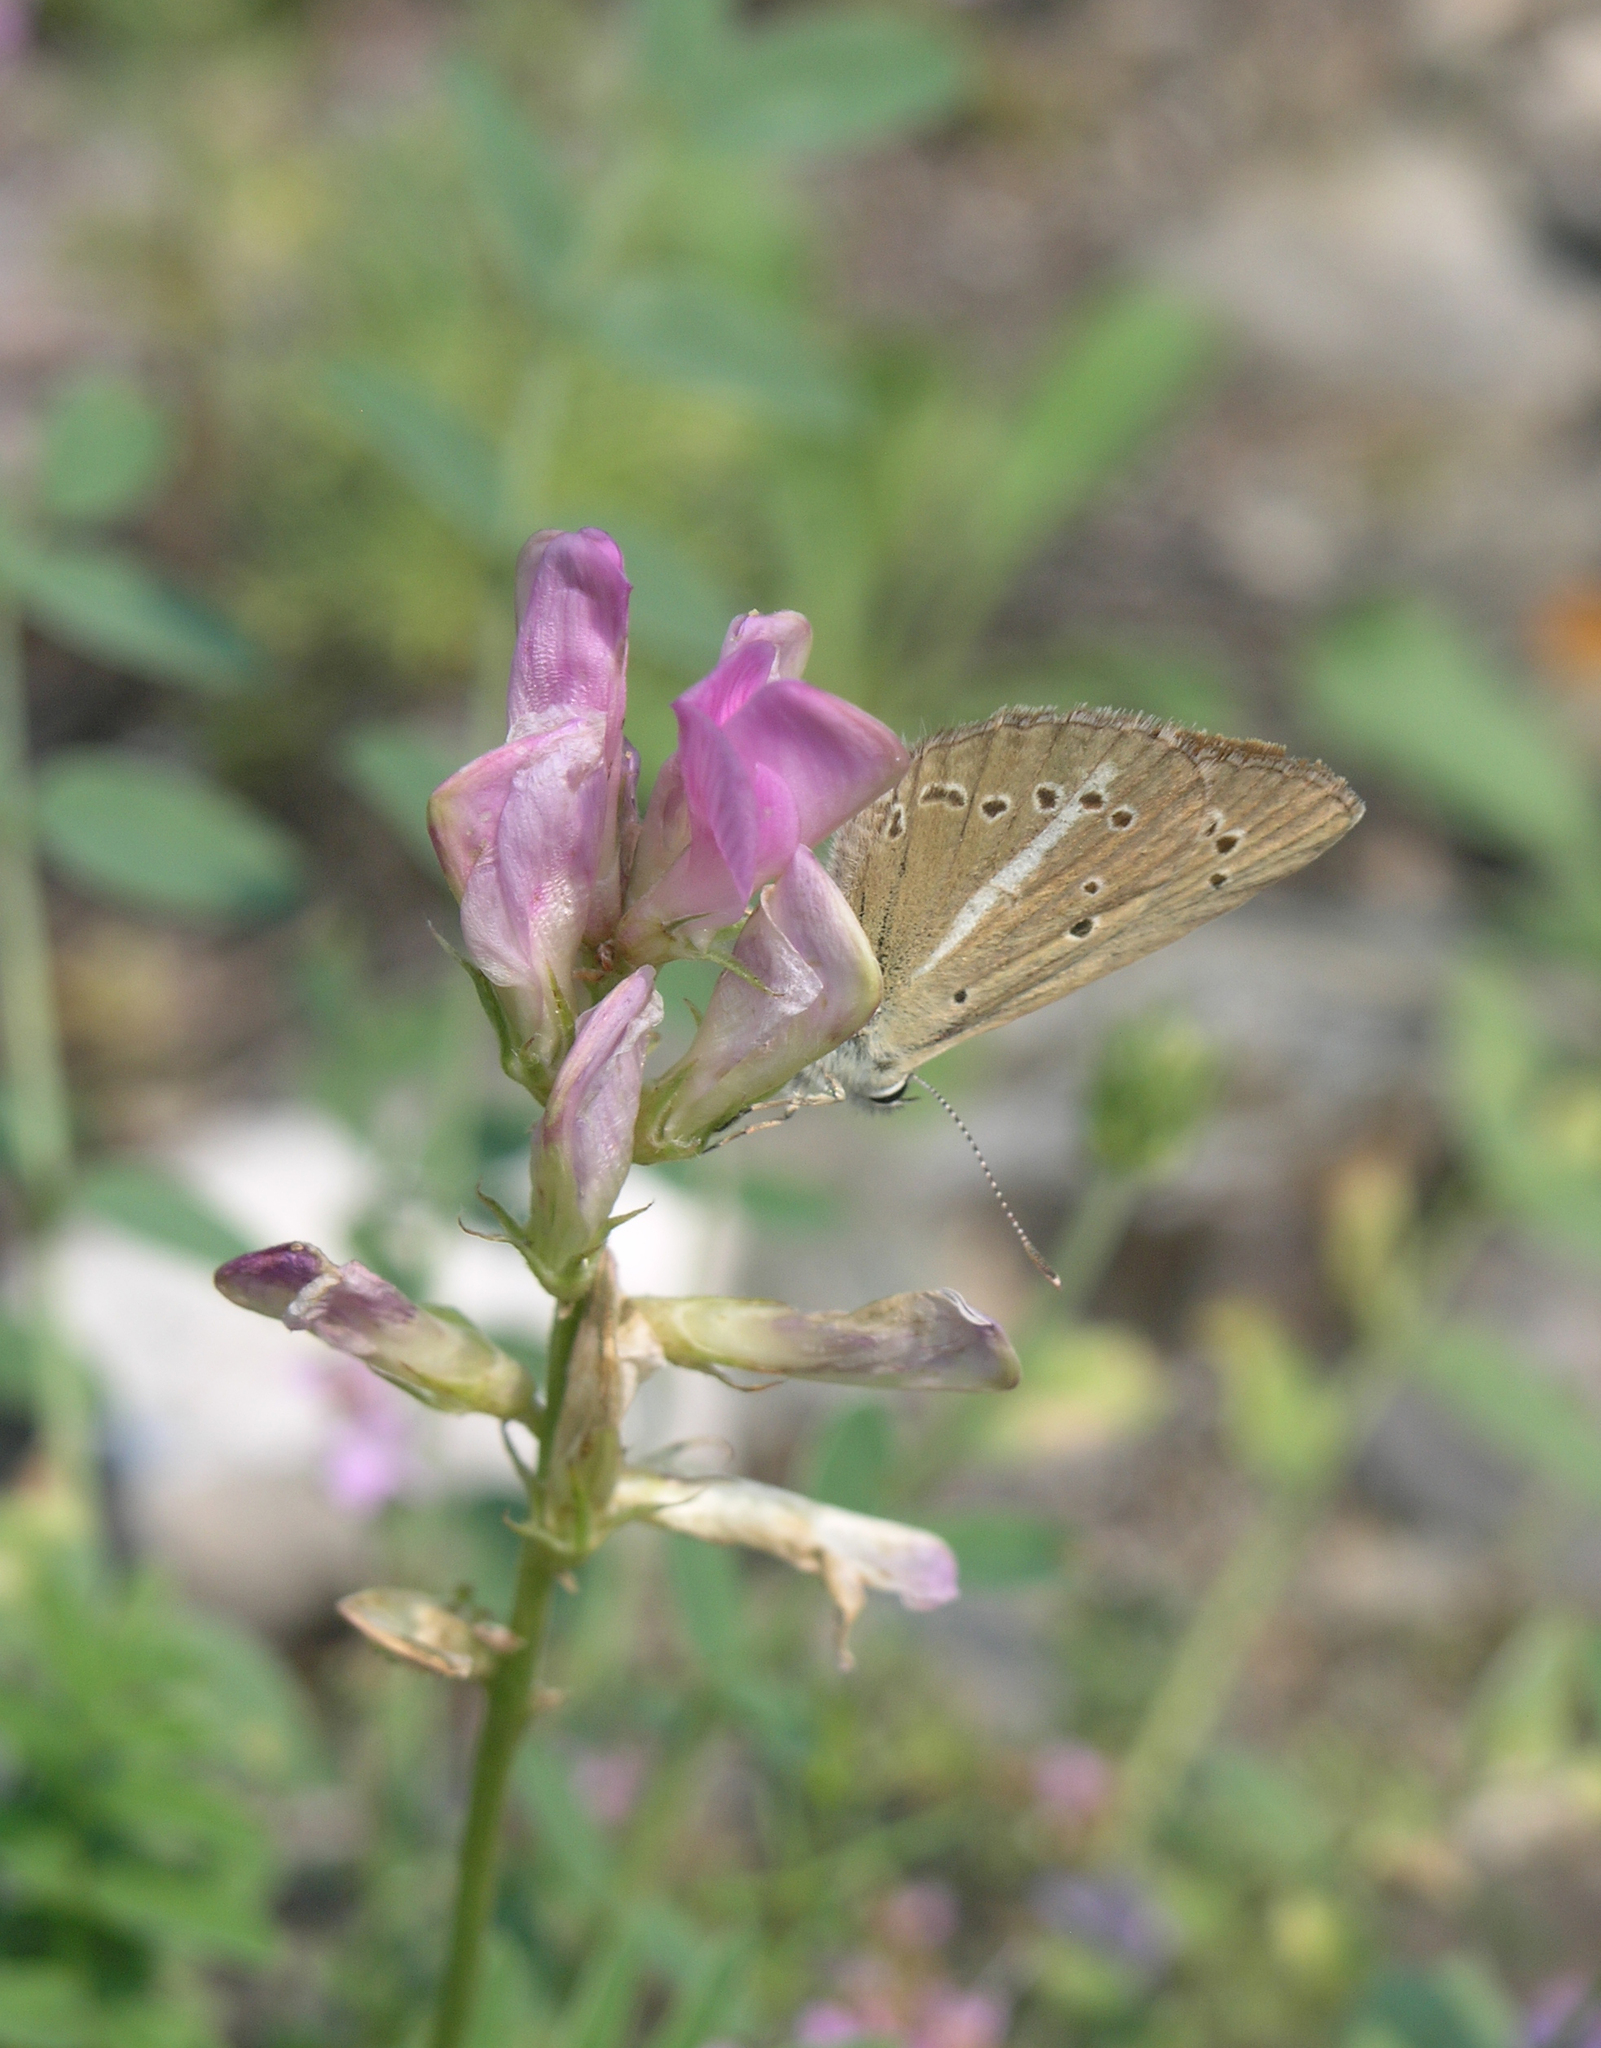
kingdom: Plantae
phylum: Tracheophyta
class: Magnoliopsida
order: Fabales
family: Fabaceae
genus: Hedysarum
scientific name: Hedysarum gmelinii
